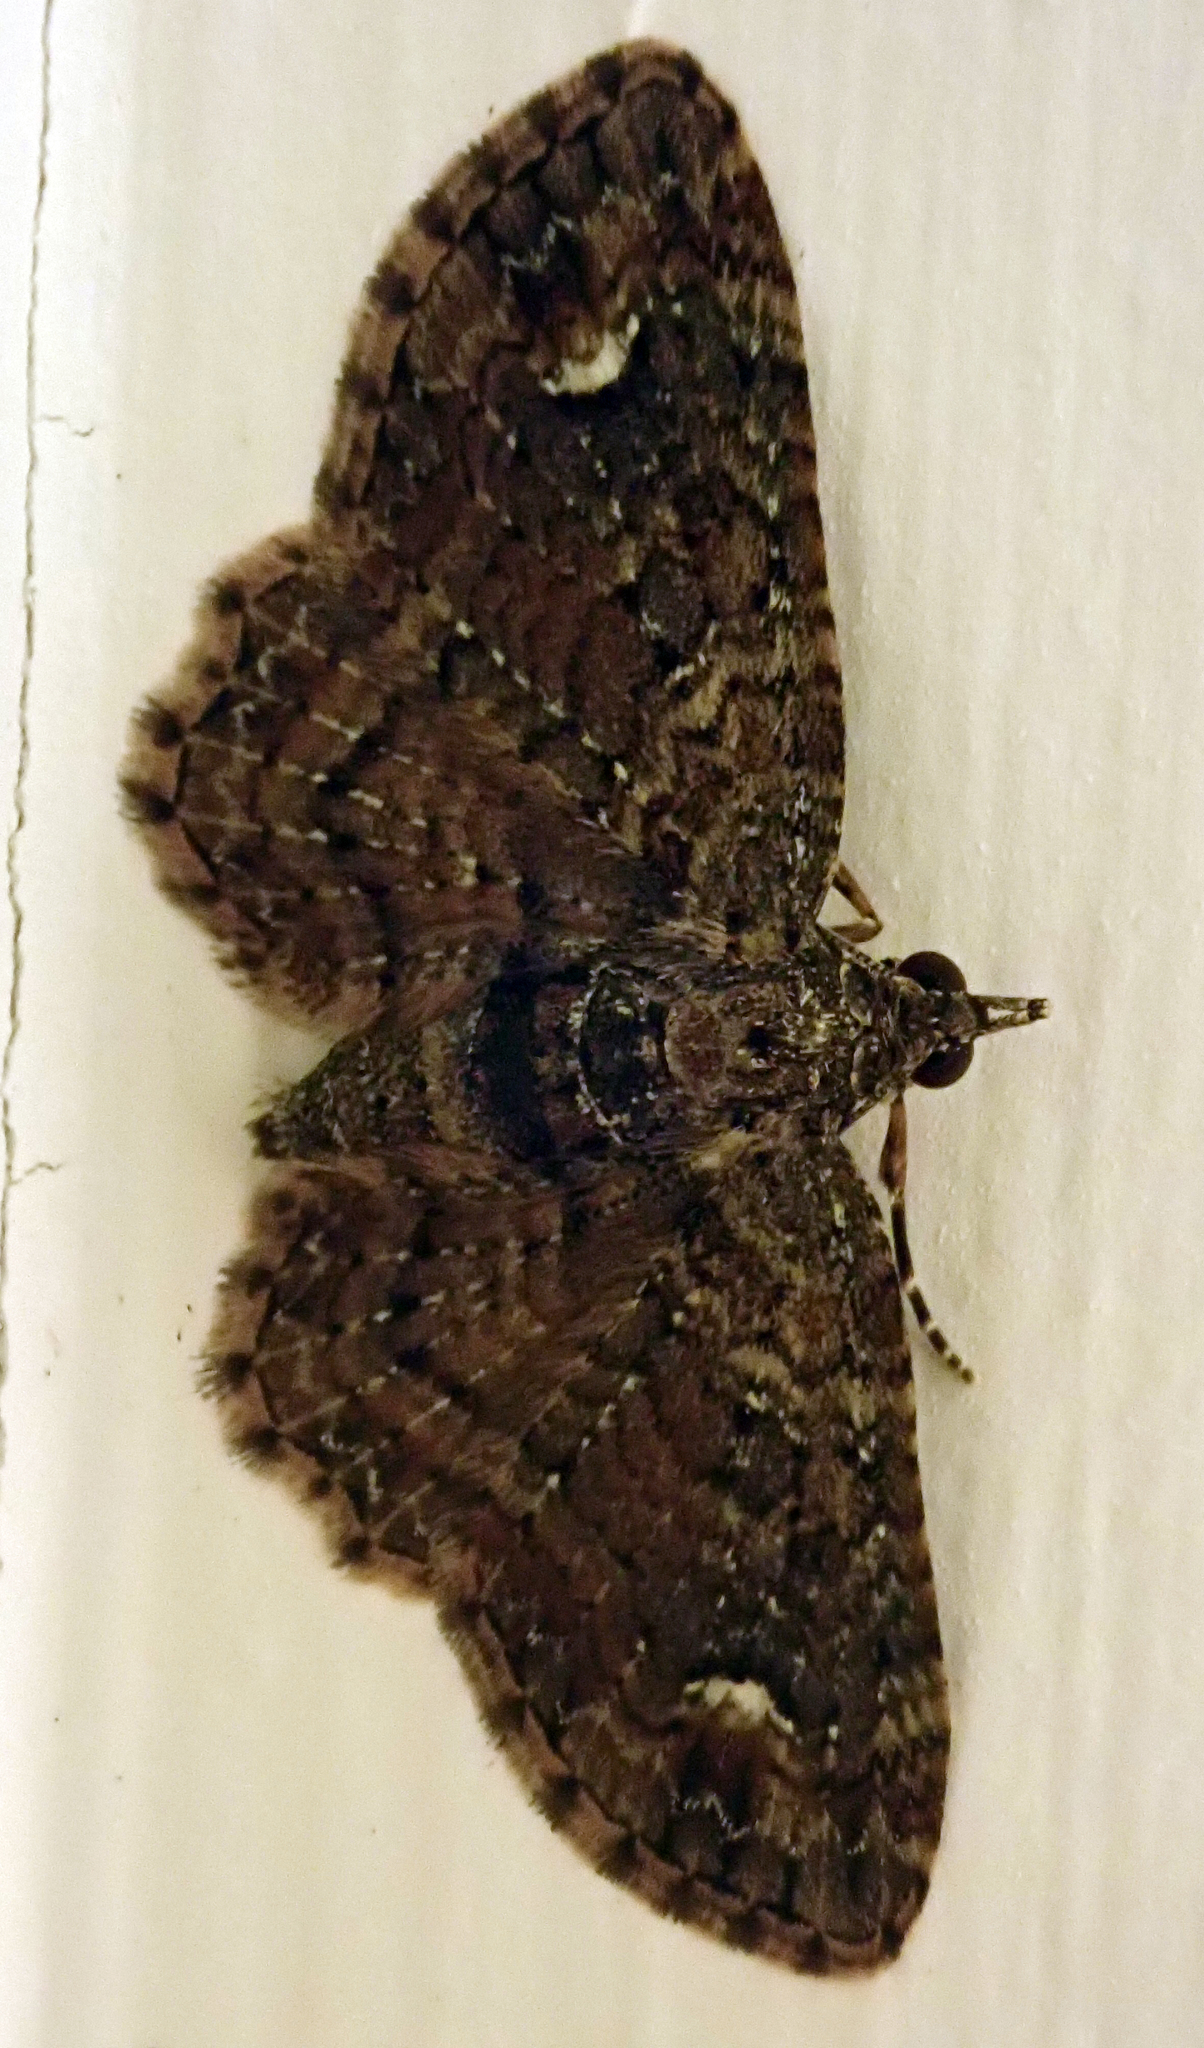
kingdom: Animalia
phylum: Arthropoda
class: Insecta
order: Lepidoptera
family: Geometridae
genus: Pasiphilodes
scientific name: Pasiphilodes testulata
